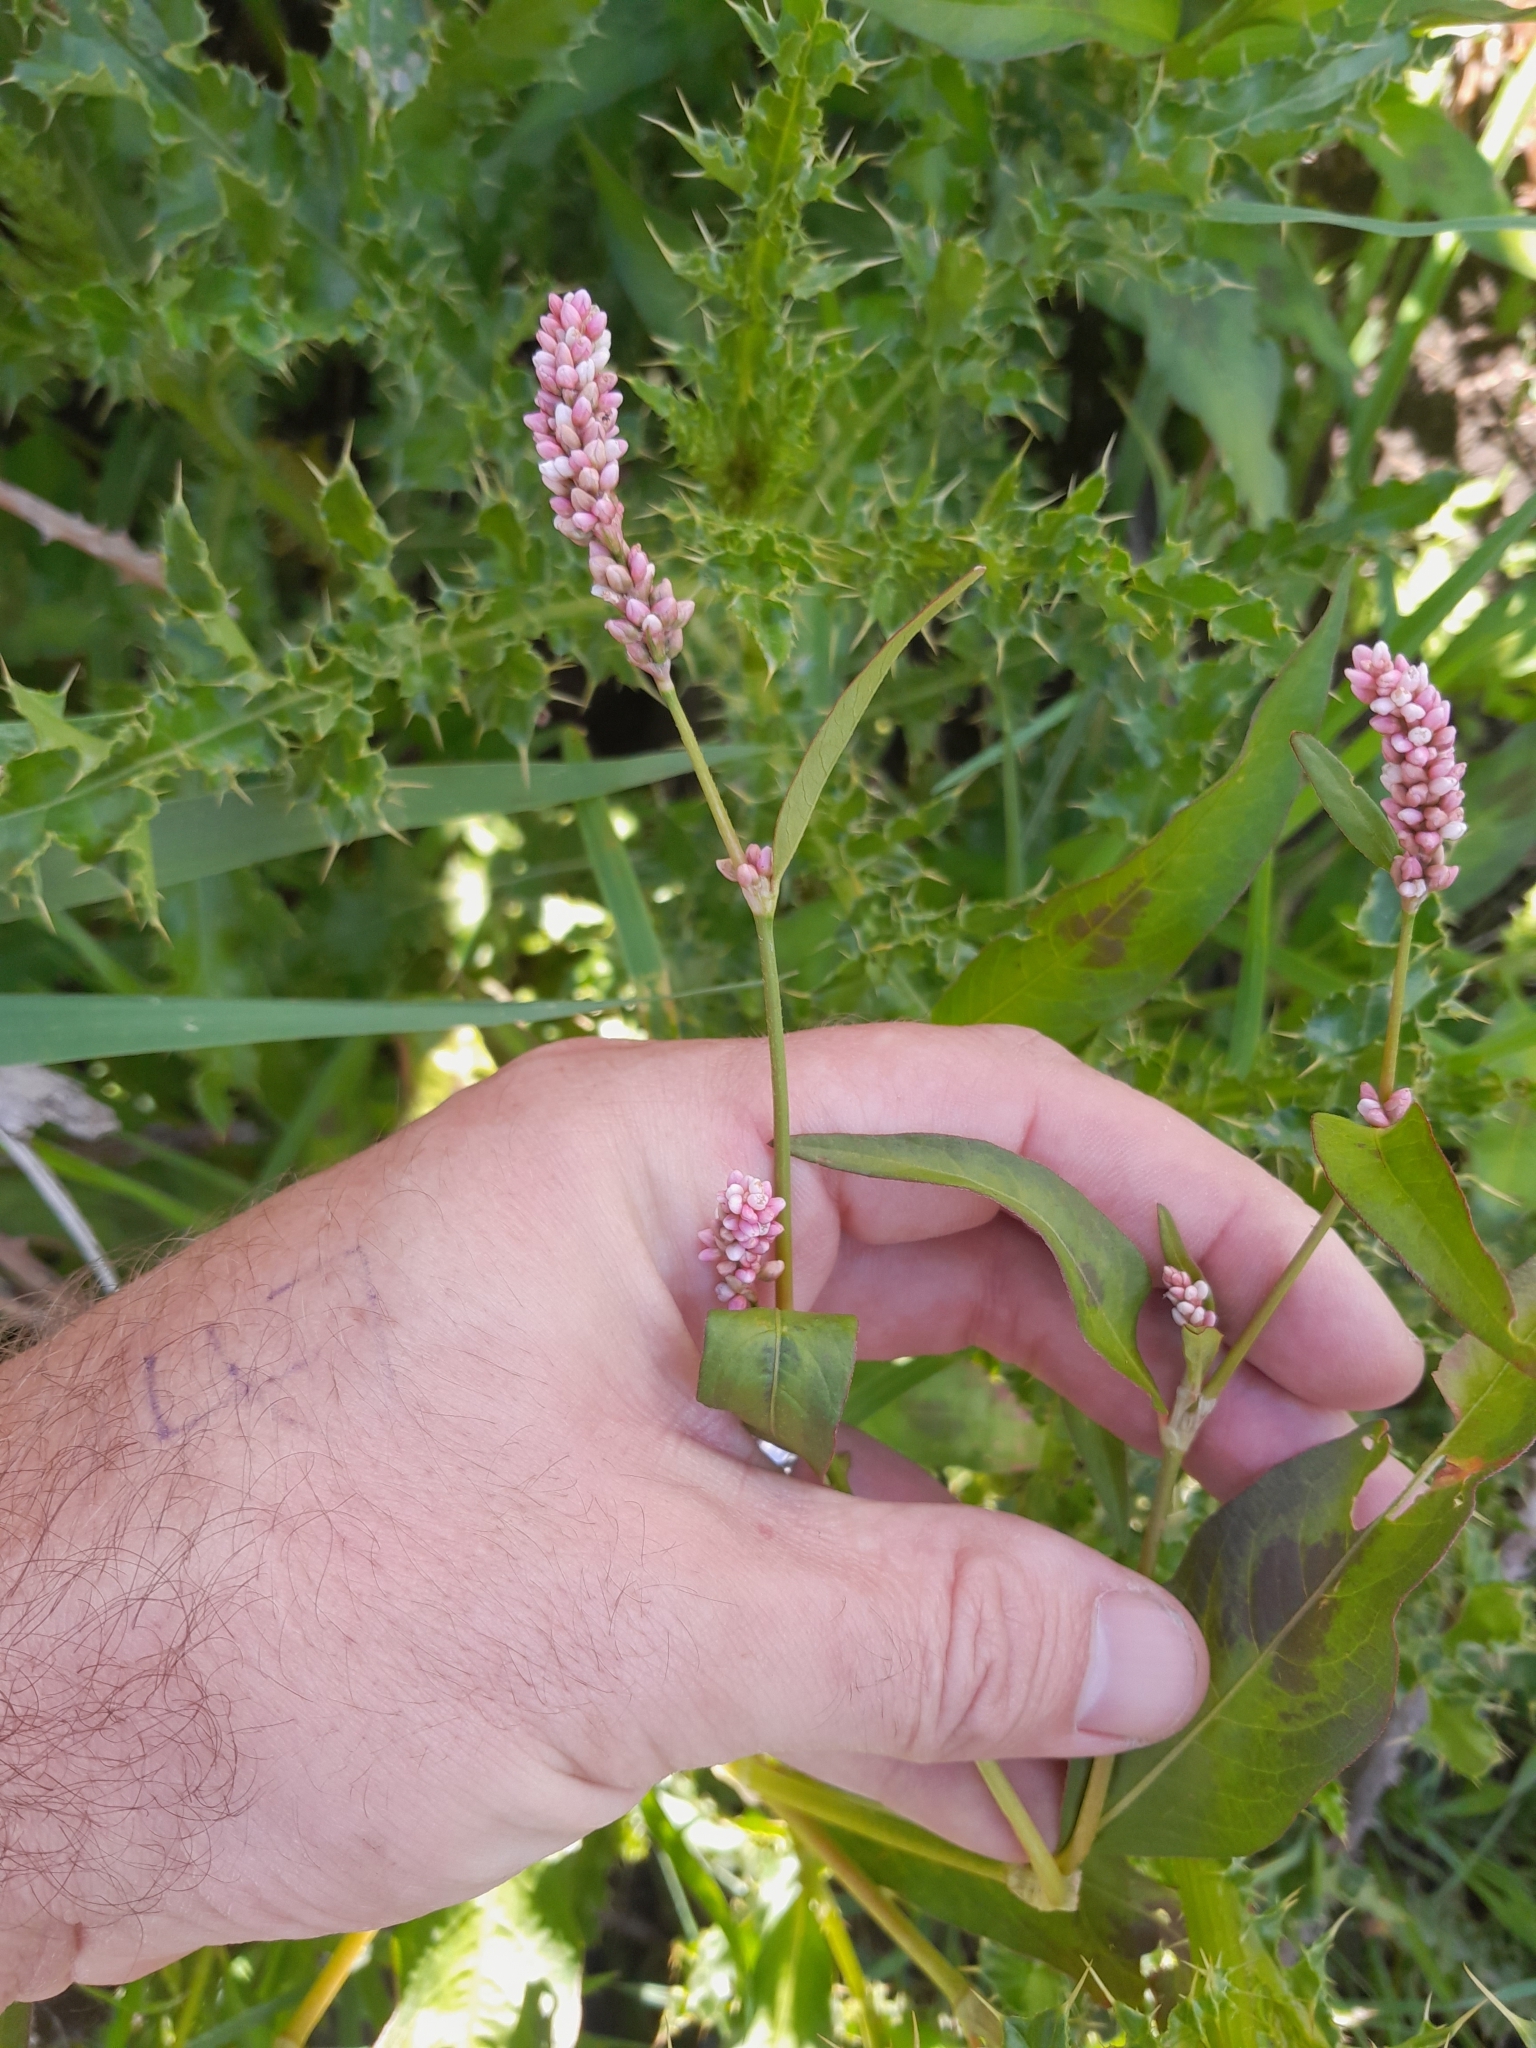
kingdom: Plantae
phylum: Tracheophyta
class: Magnoliopsida
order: Caryophyllales
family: Polygonaceae
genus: Persicaria
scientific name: Persicaria maculosa
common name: Redshank
